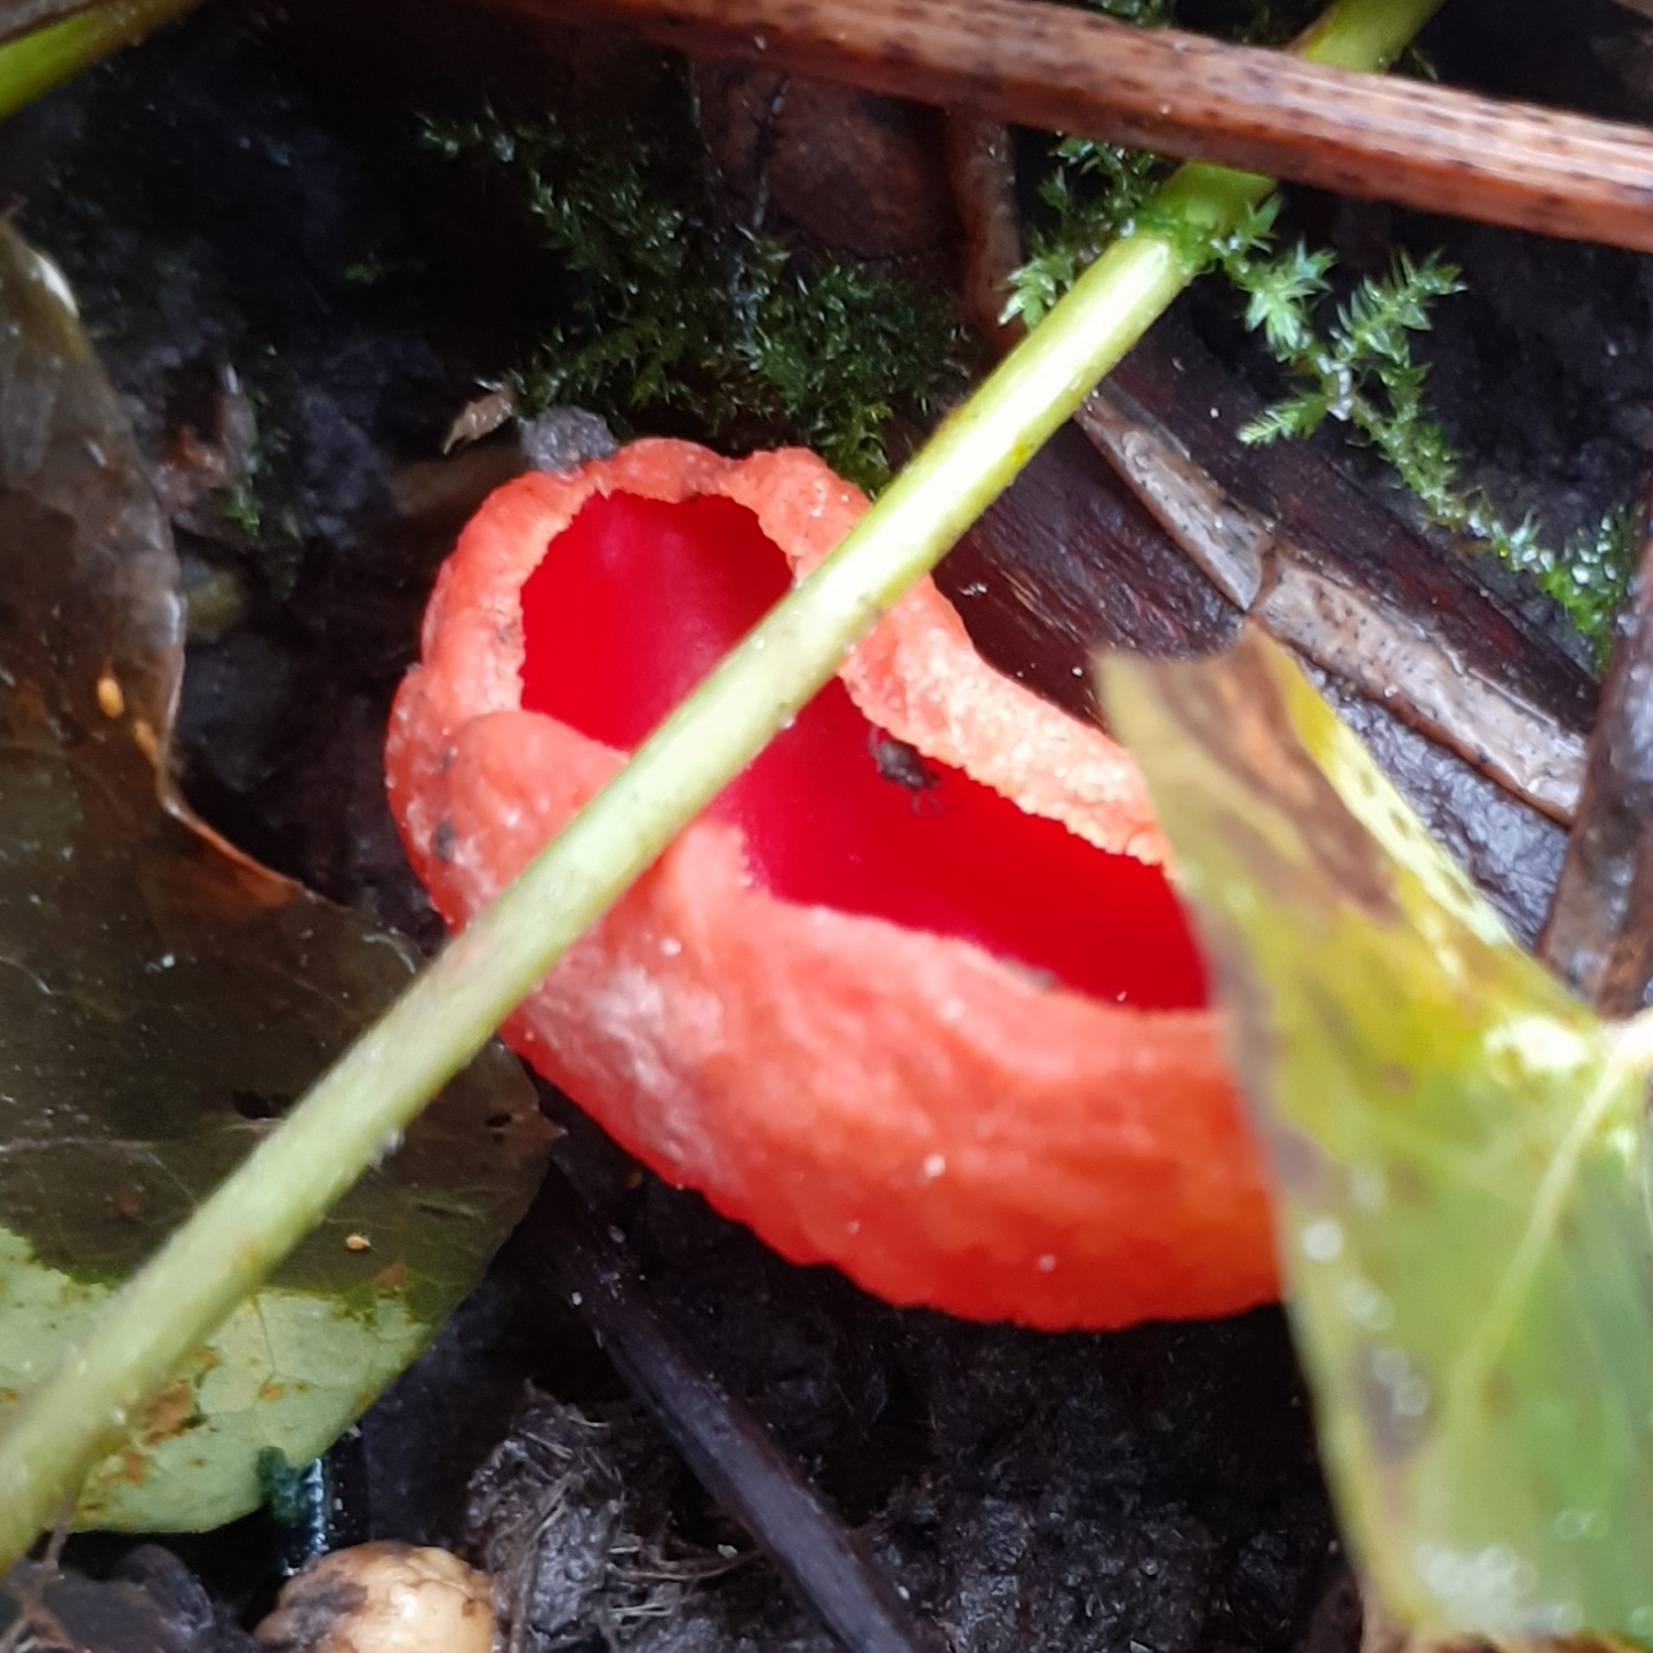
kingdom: Fungi
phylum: Ascomycota
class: Pezizomycetes
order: Pezizales
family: Sarcoscyphaceae
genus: Sarcoscypha
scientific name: Sarcoscypha
